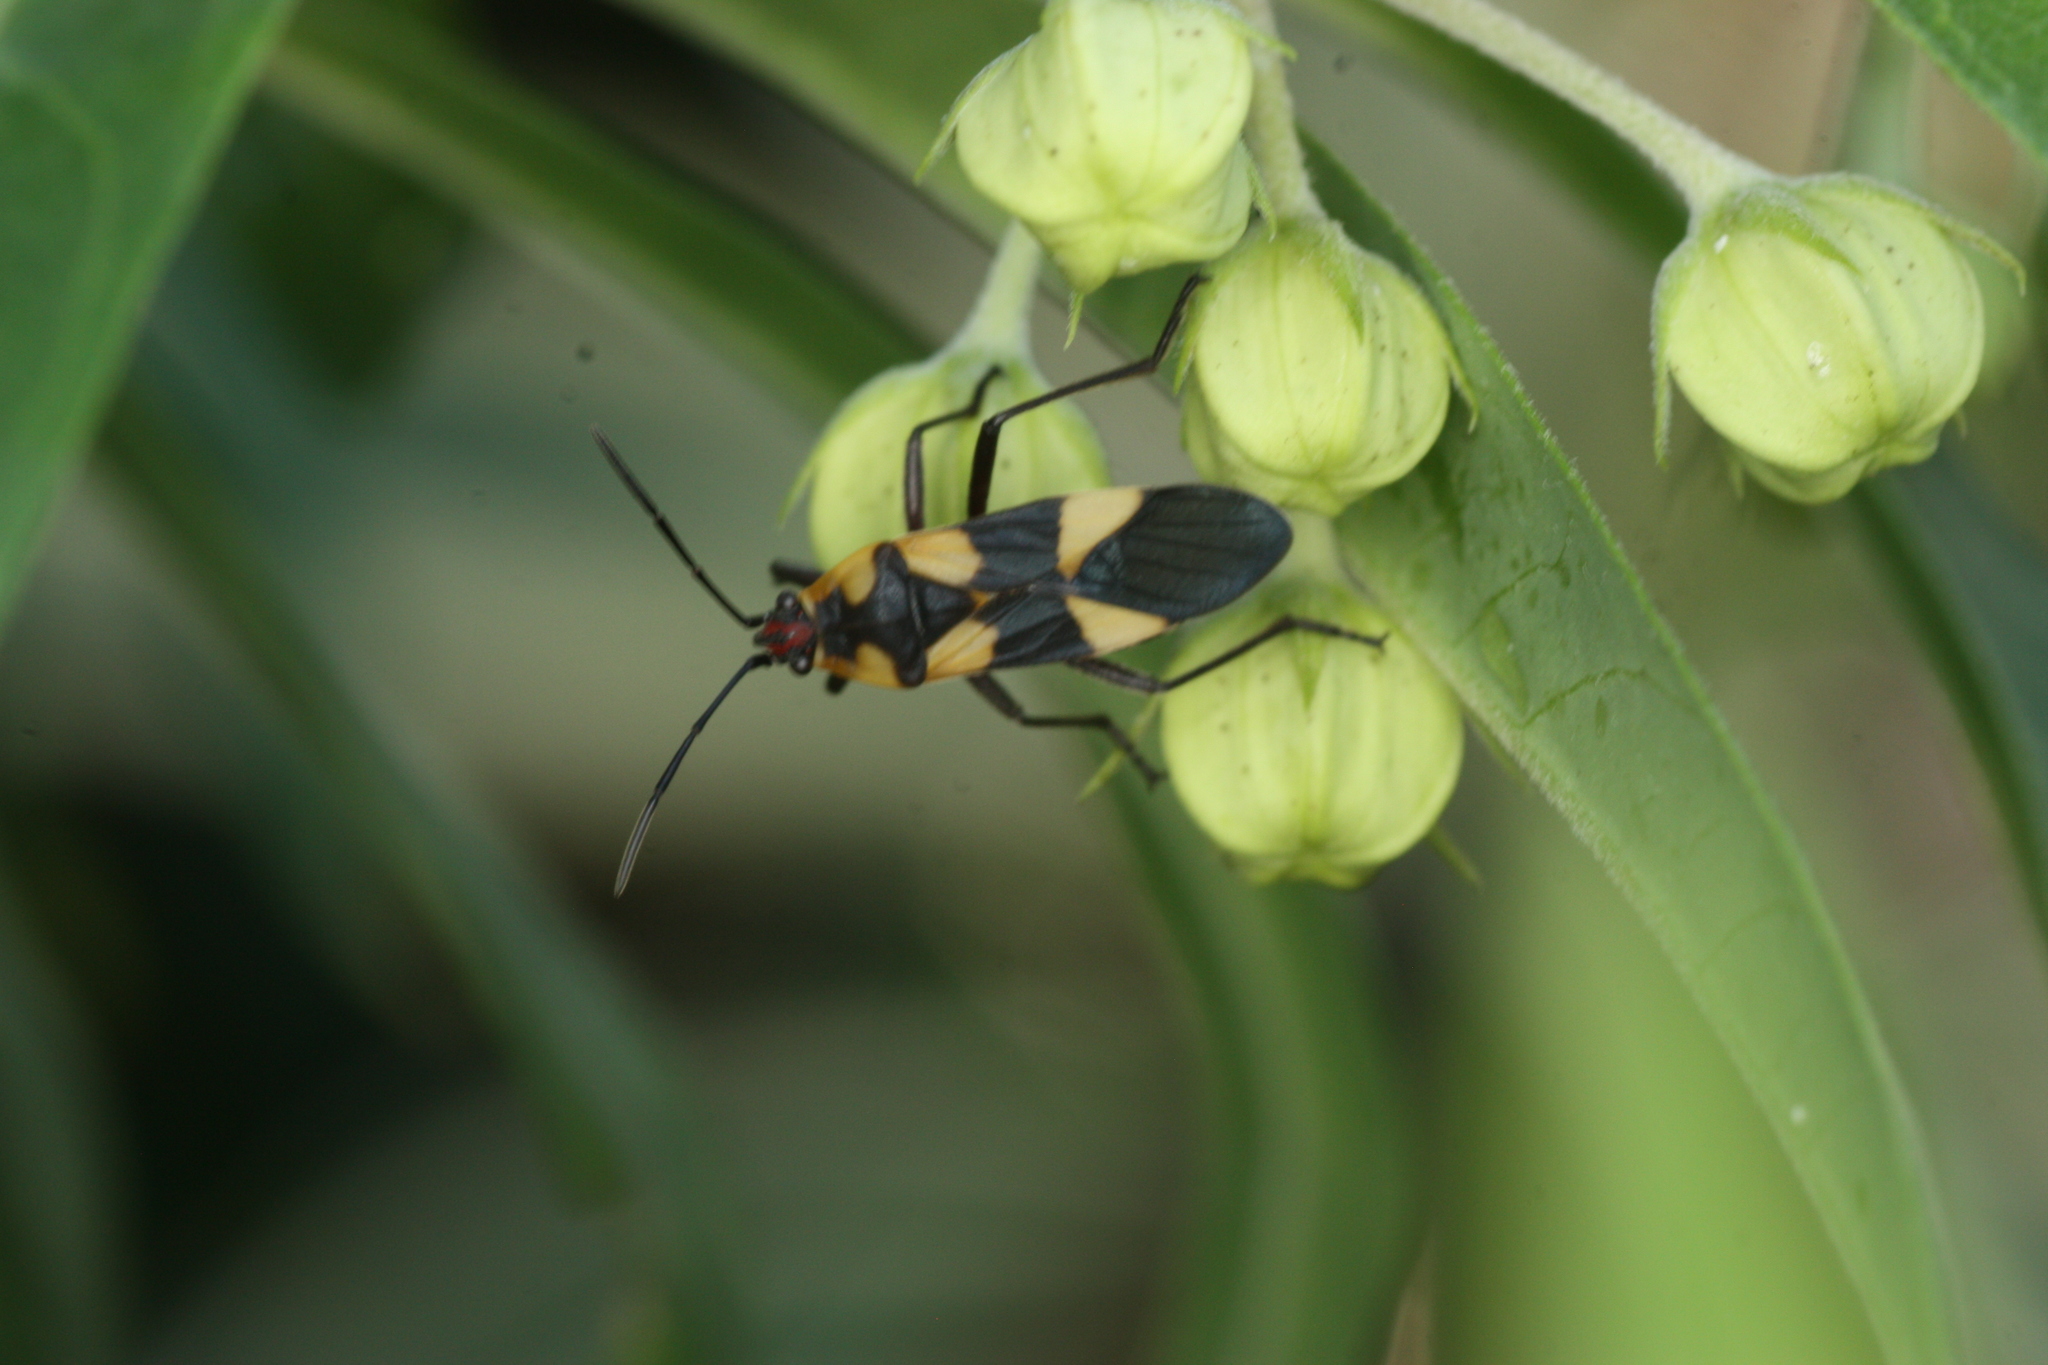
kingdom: Animalia
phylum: Arthropoda
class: Insecta
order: Hemiptera
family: Lygaeidae
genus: Oncopeltus
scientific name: Oncopeltus cingulifer
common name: Lygaeid bug
